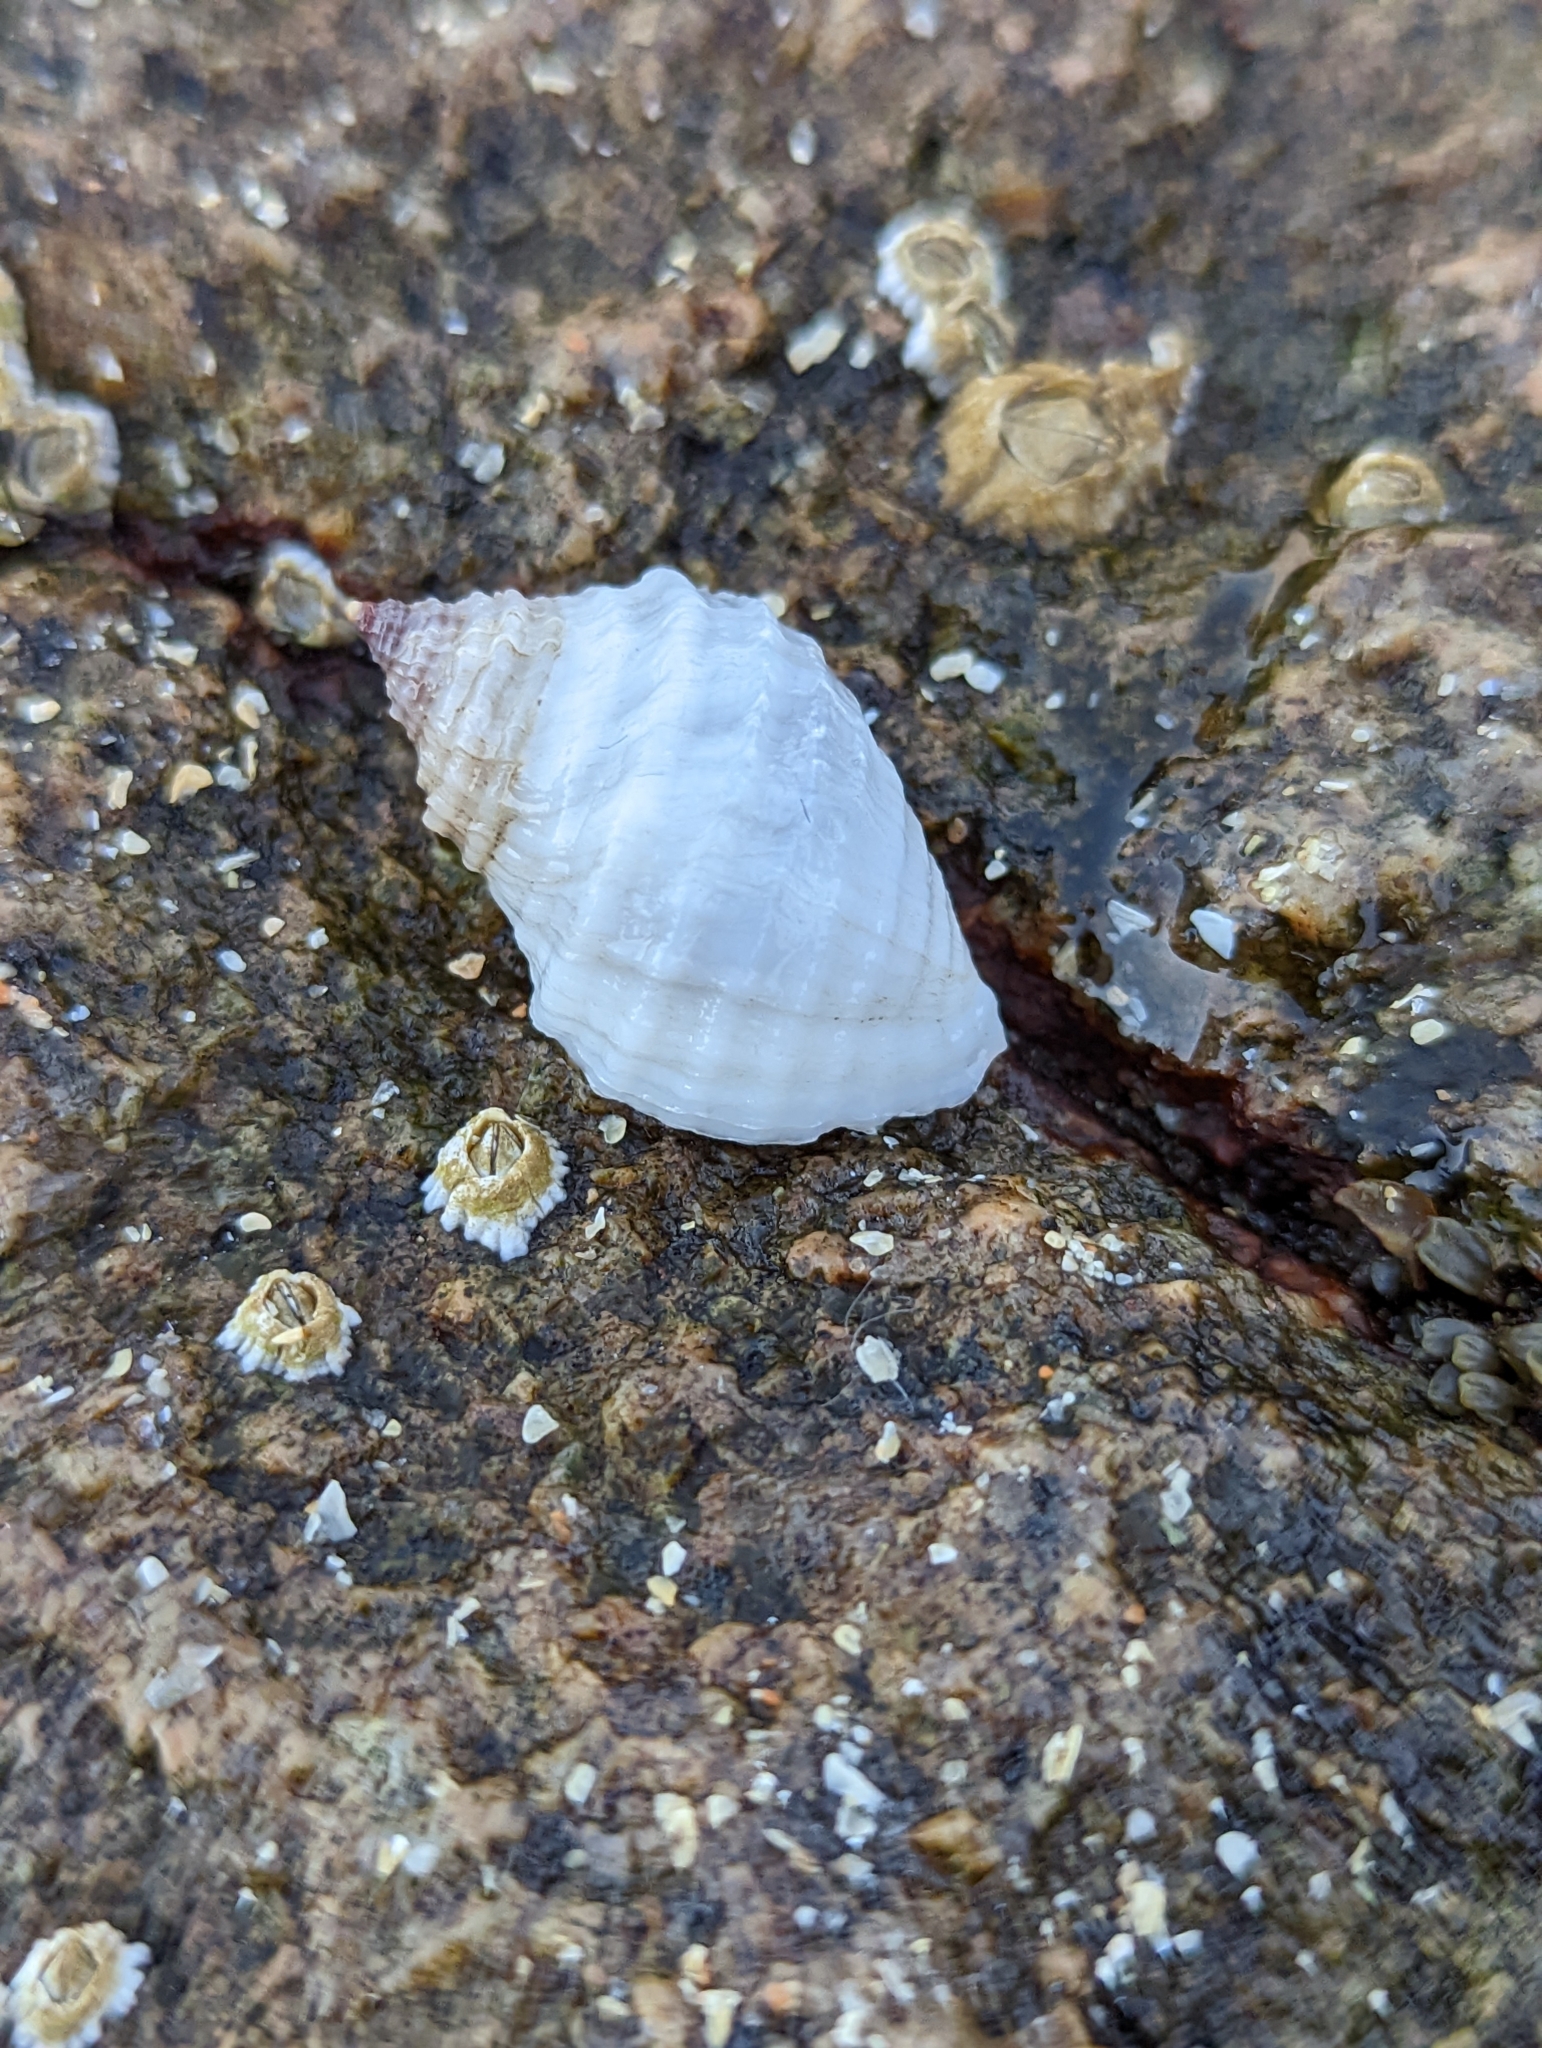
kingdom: Animalia
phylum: Mollusca
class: Gastropoda
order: Neogastropoda
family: Muricidae
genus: Nucella
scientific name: Nucella lapillus
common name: Dog whelk
